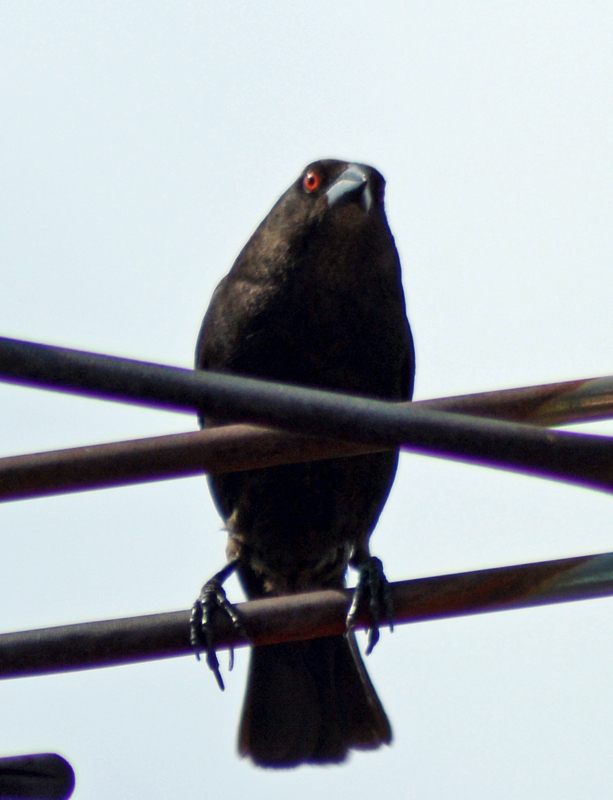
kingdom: Animalia
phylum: Chordata
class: Aves
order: Passeriformes
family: Icteridae
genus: Molothrus
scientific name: Molothrus aeneus
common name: Bronzed cowbird
